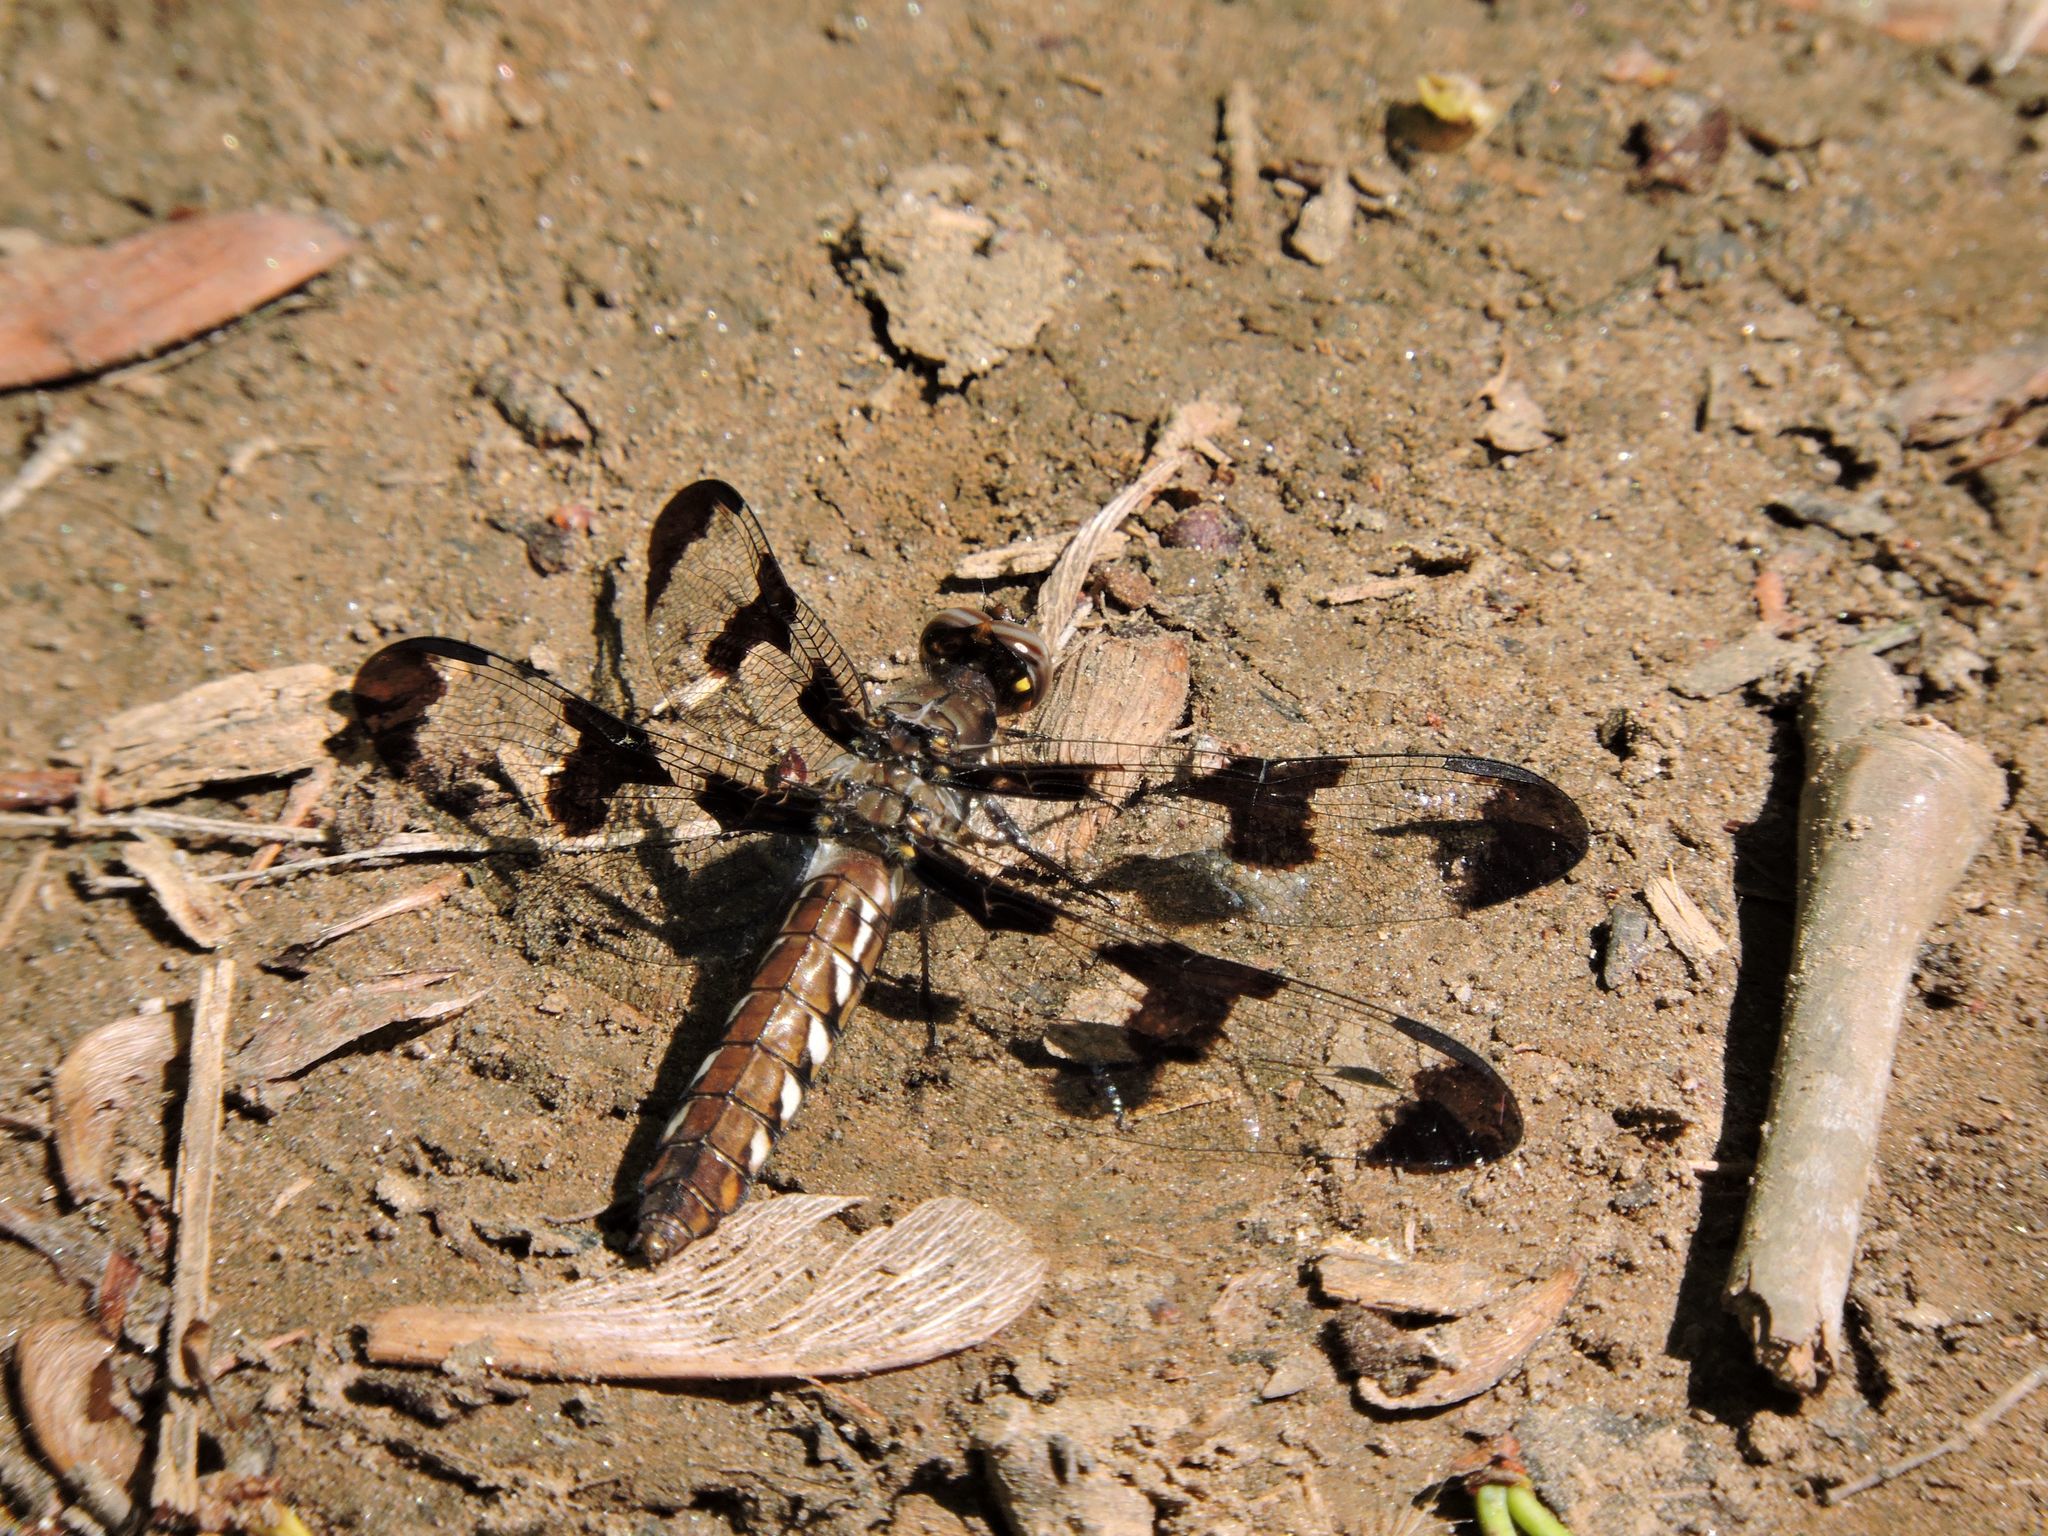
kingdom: Animalia
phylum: Arthropoda
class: Insecta
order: Odonata
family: Libellulidae
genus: Plathemis
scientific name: Plathemis lydia
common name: Common whitetail
